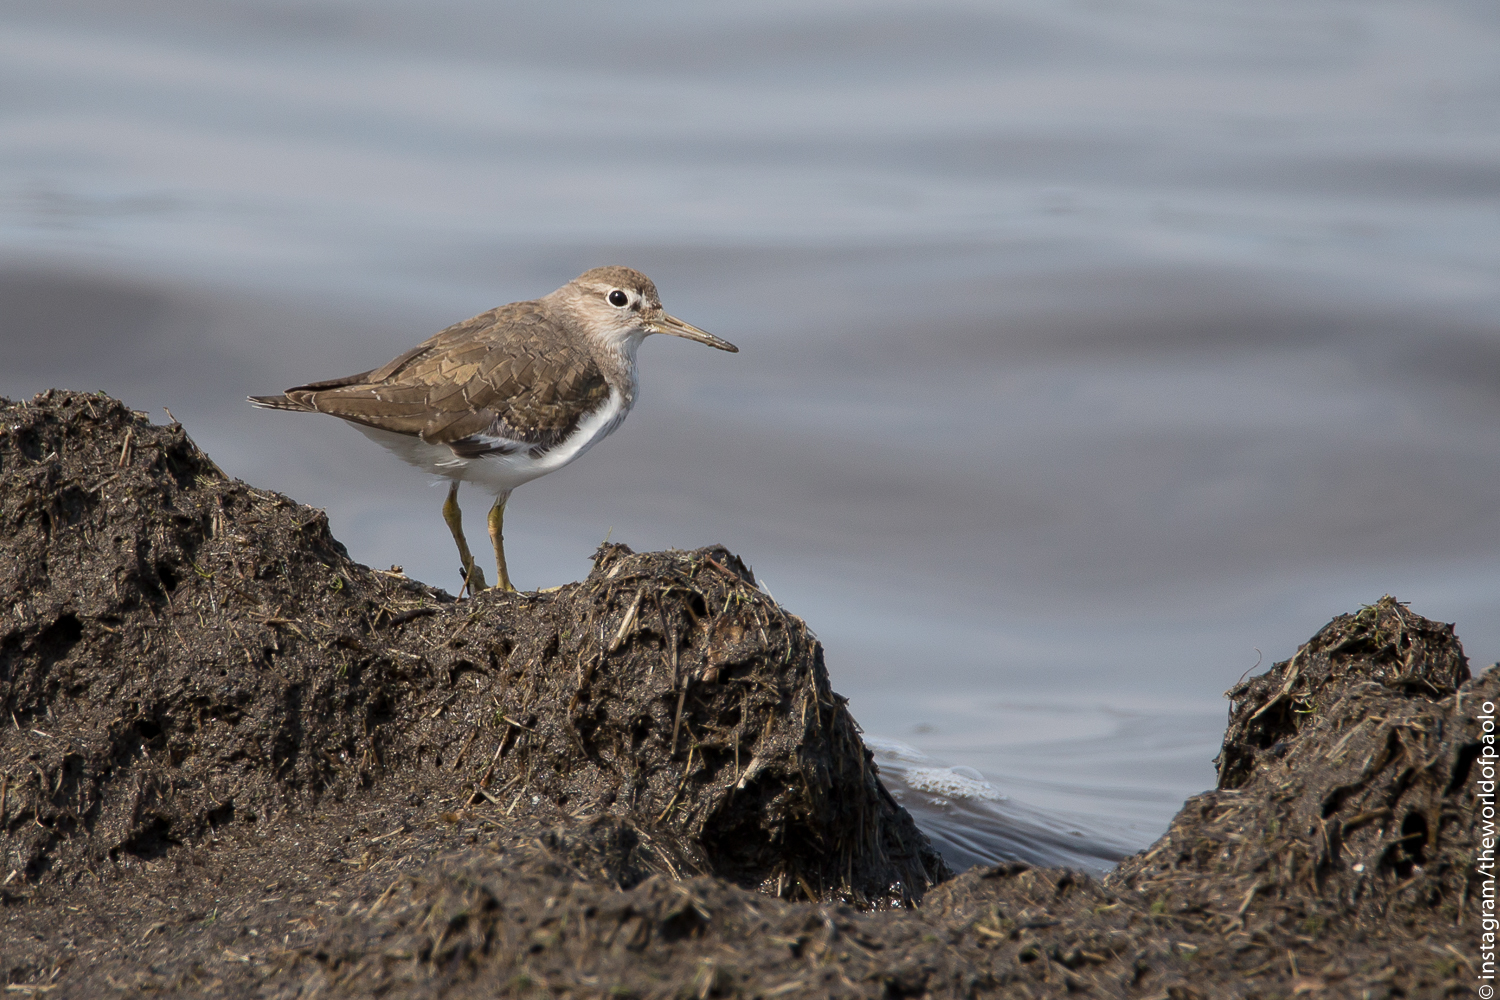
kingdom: Animalia
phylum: Chordata
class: Aves
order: Charadriiformes
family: Scolopacidae
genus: Actitis
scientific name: Actitis hypoleucos
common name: Common sandpiper
